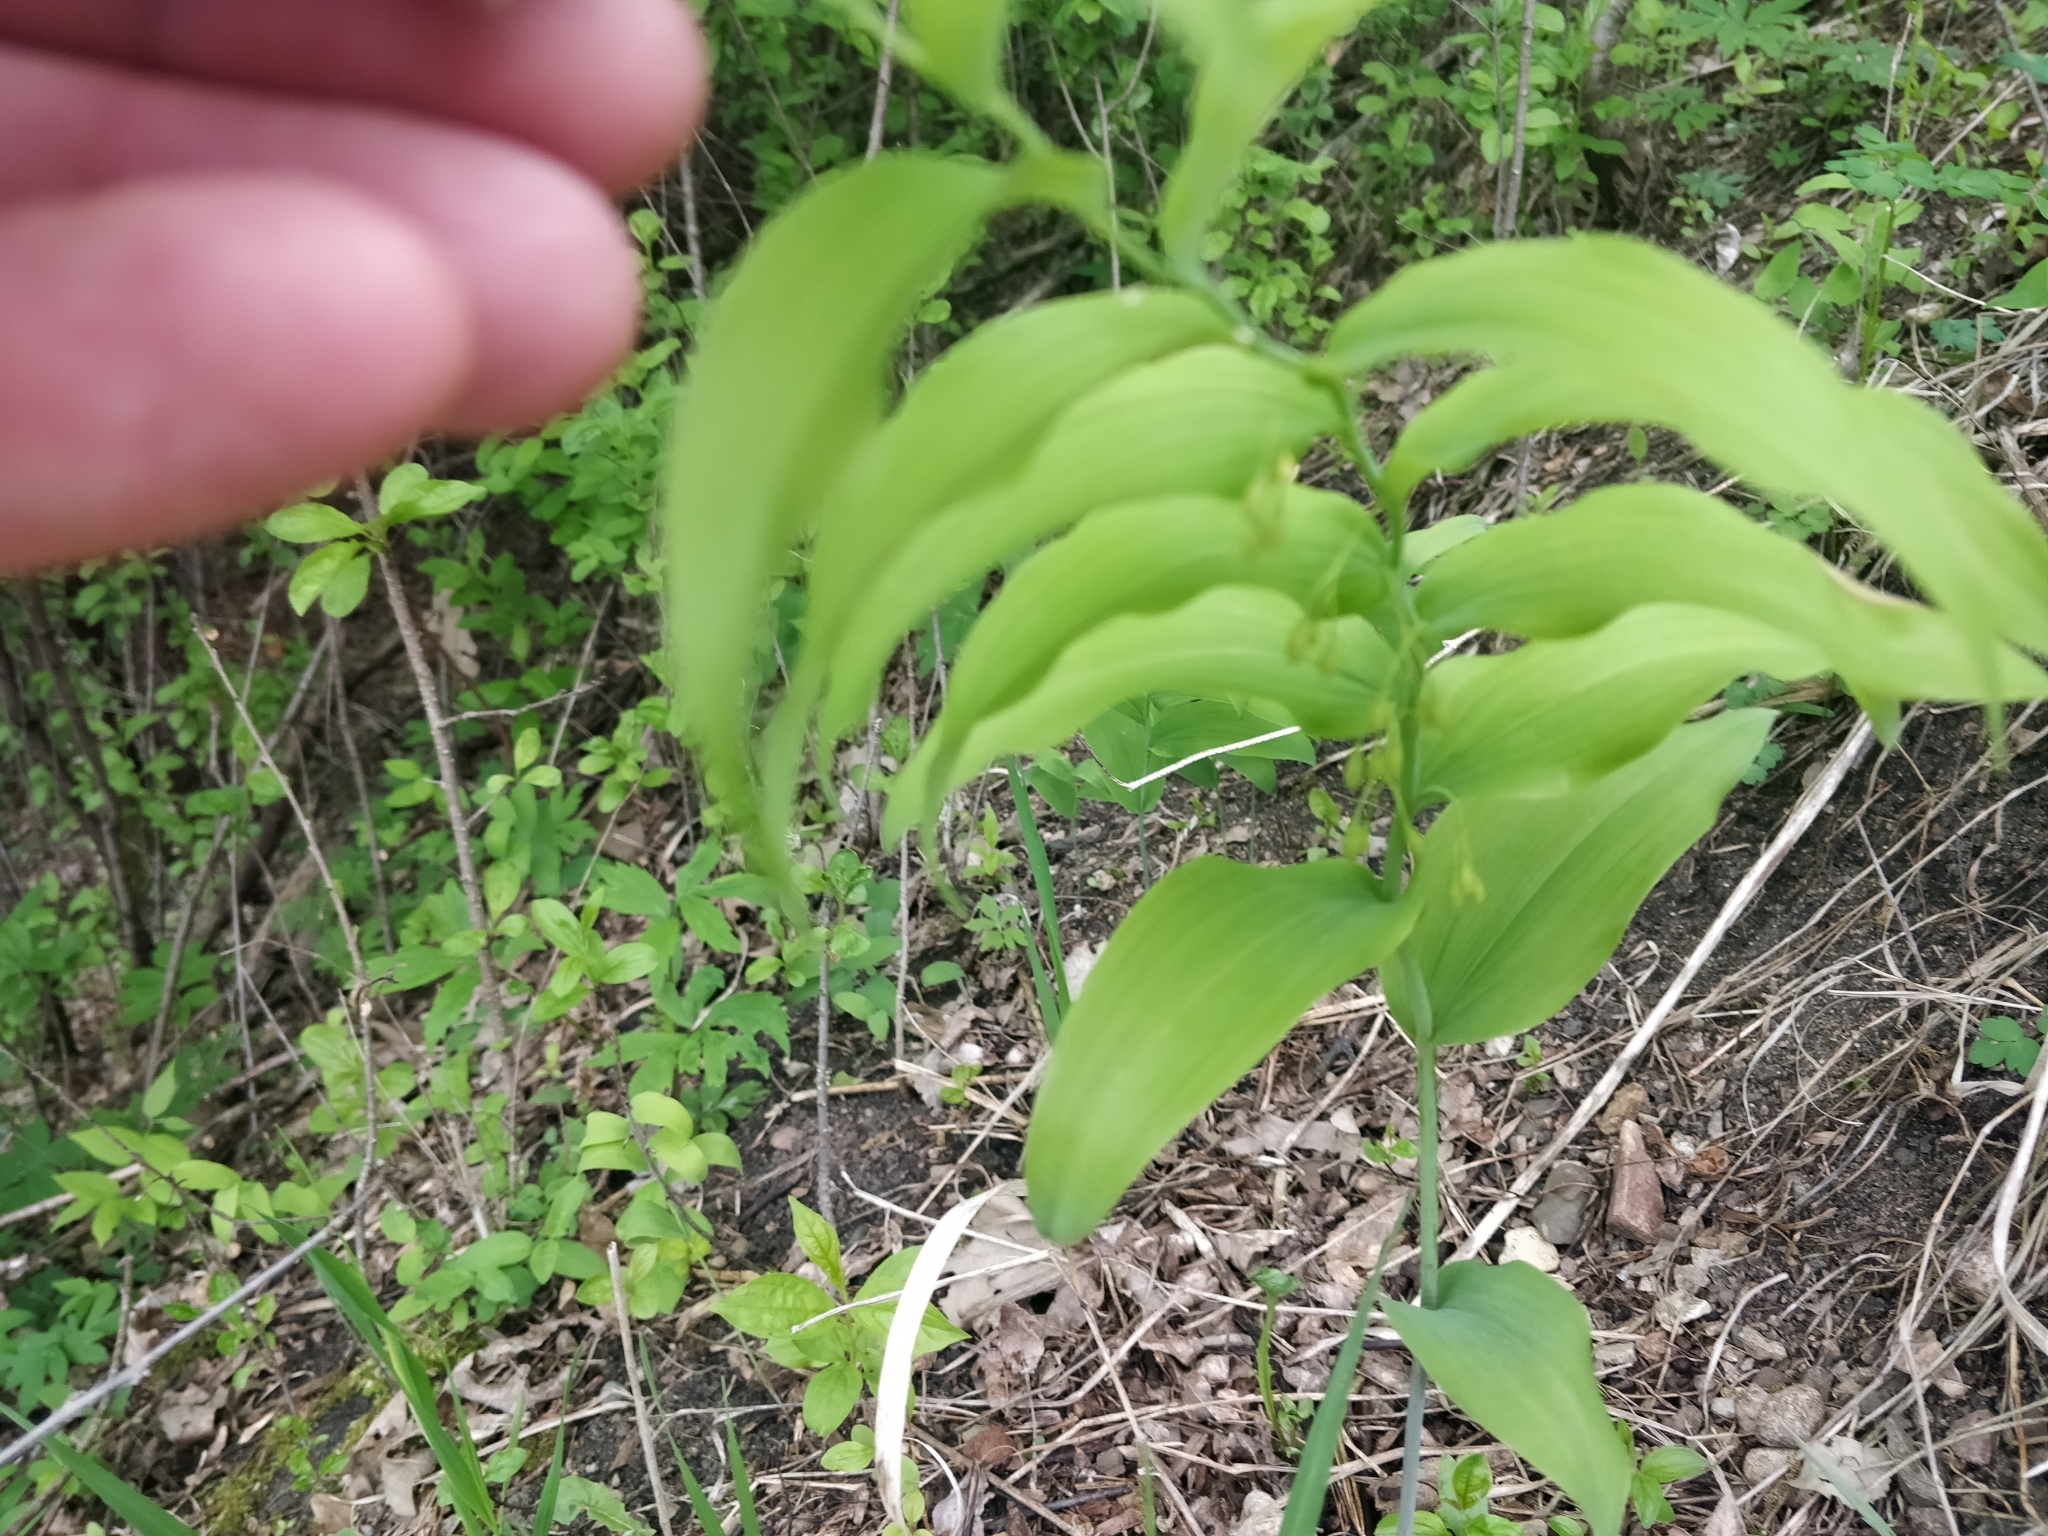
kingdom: Plantae
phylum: Tracheophyta
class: Liliopsida
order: Asparagales
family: Asparagaceae
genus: Polygonatum
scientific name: Polygonatum biflorum
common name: American solomon's-seal
